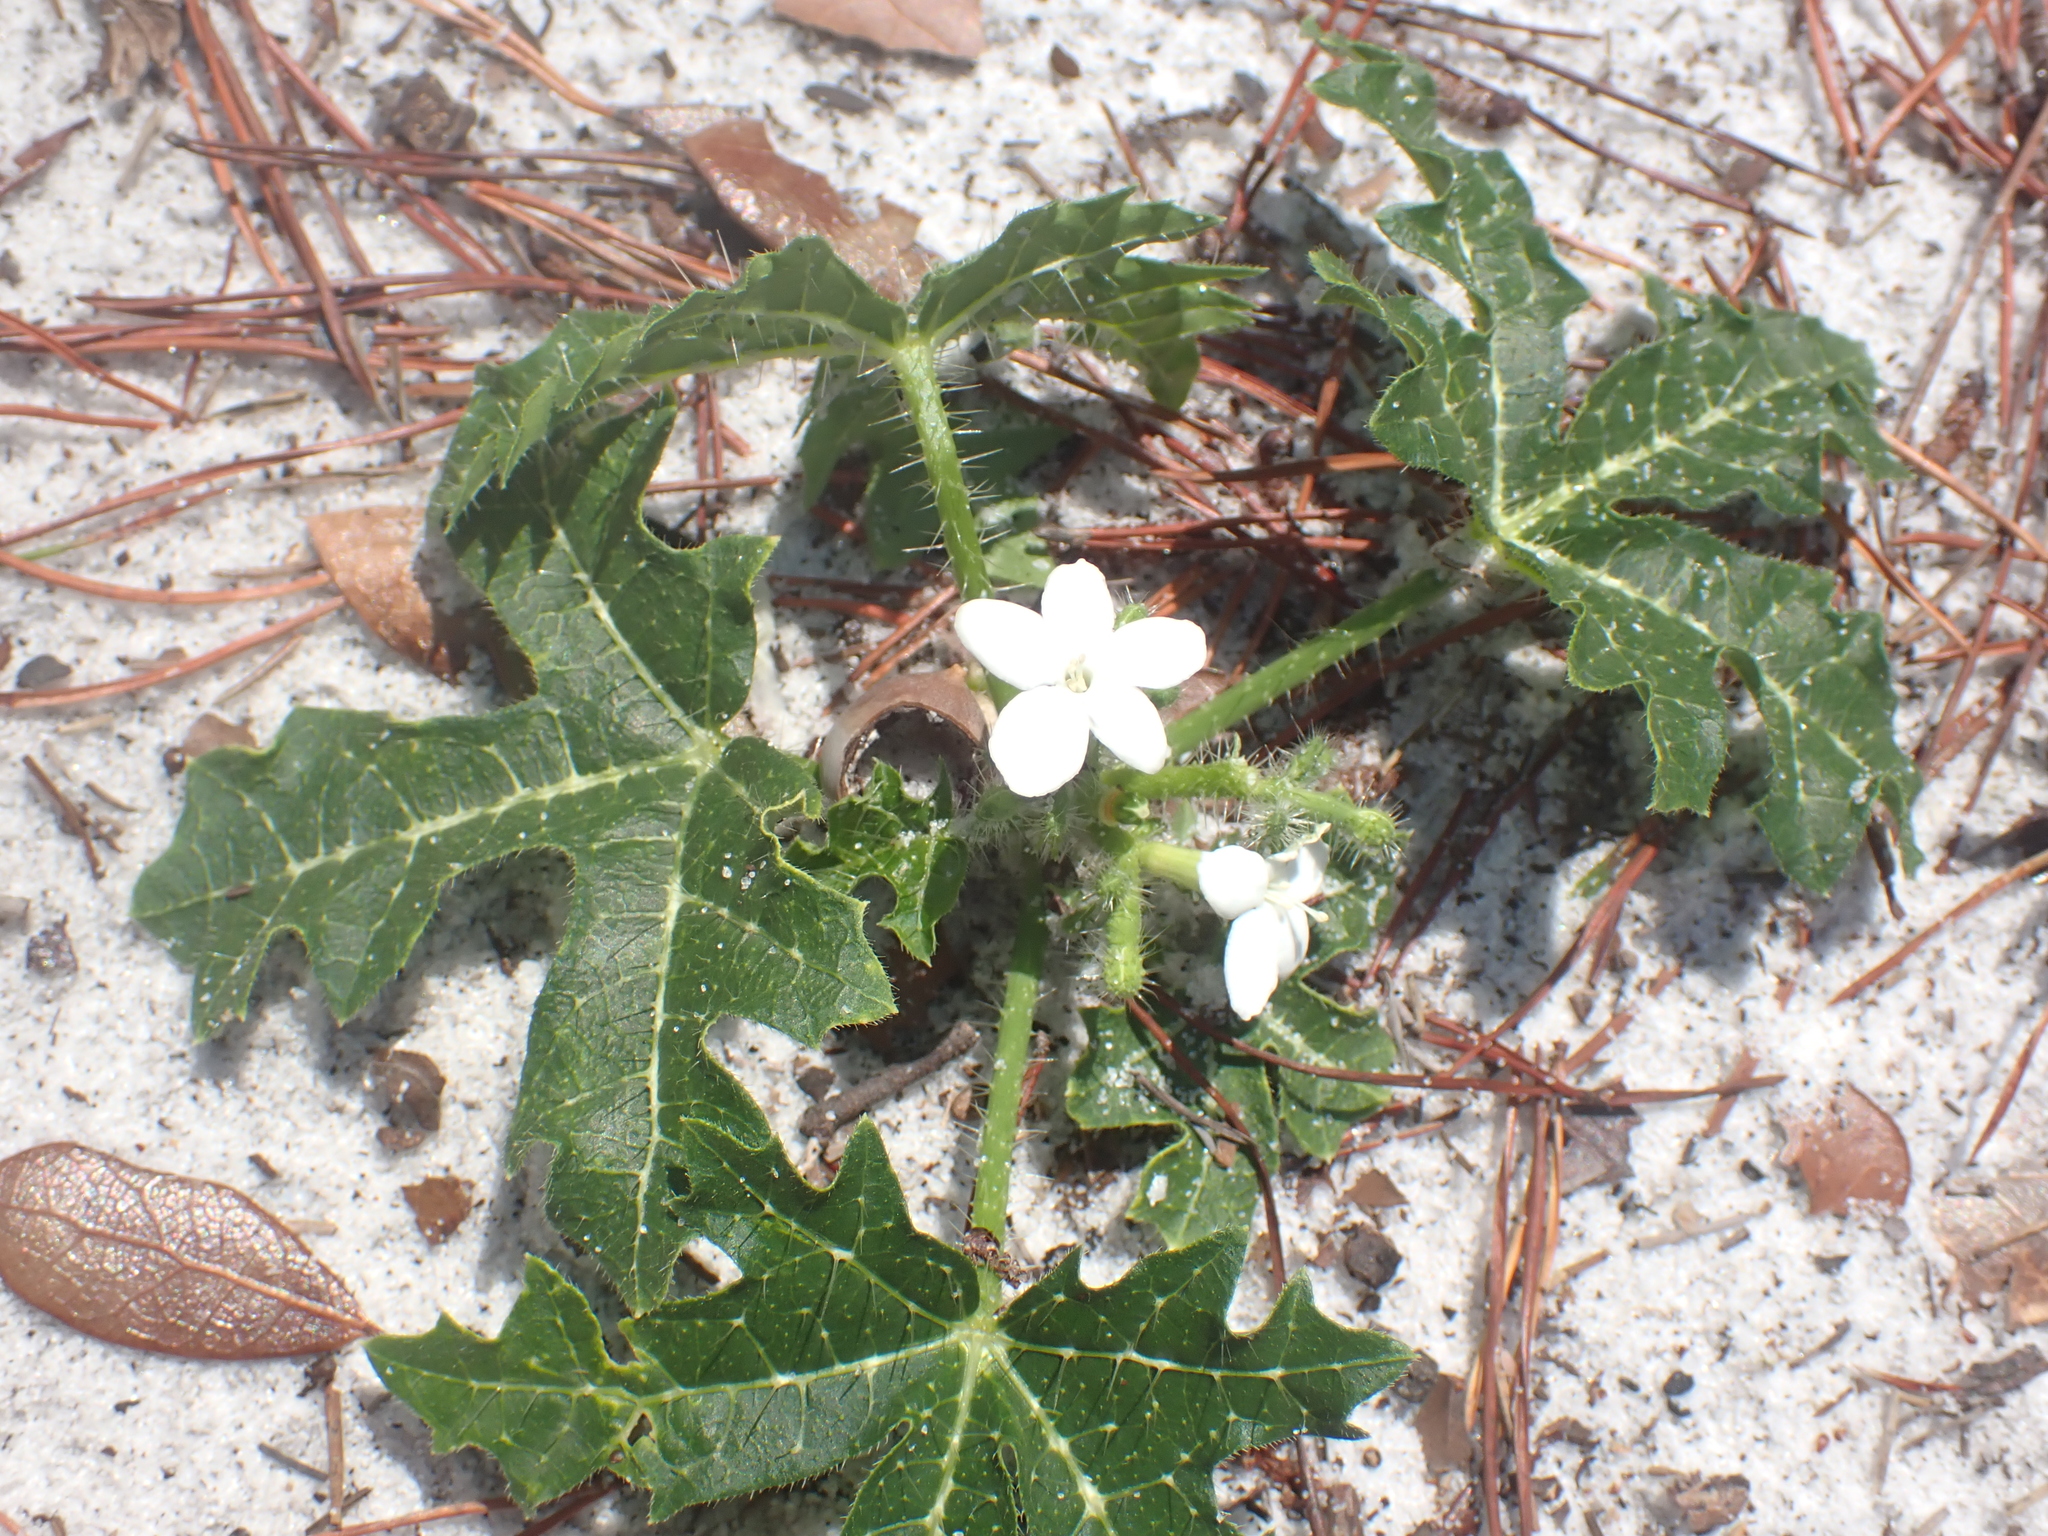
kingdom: Plantae
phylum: Tracheophyta
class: Magnoliopsida
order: Malpighiales
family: Euphorbiaceae
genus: Cnidoscolus
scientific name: Cnidoscolus stimulosus
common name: Bull-nettle
